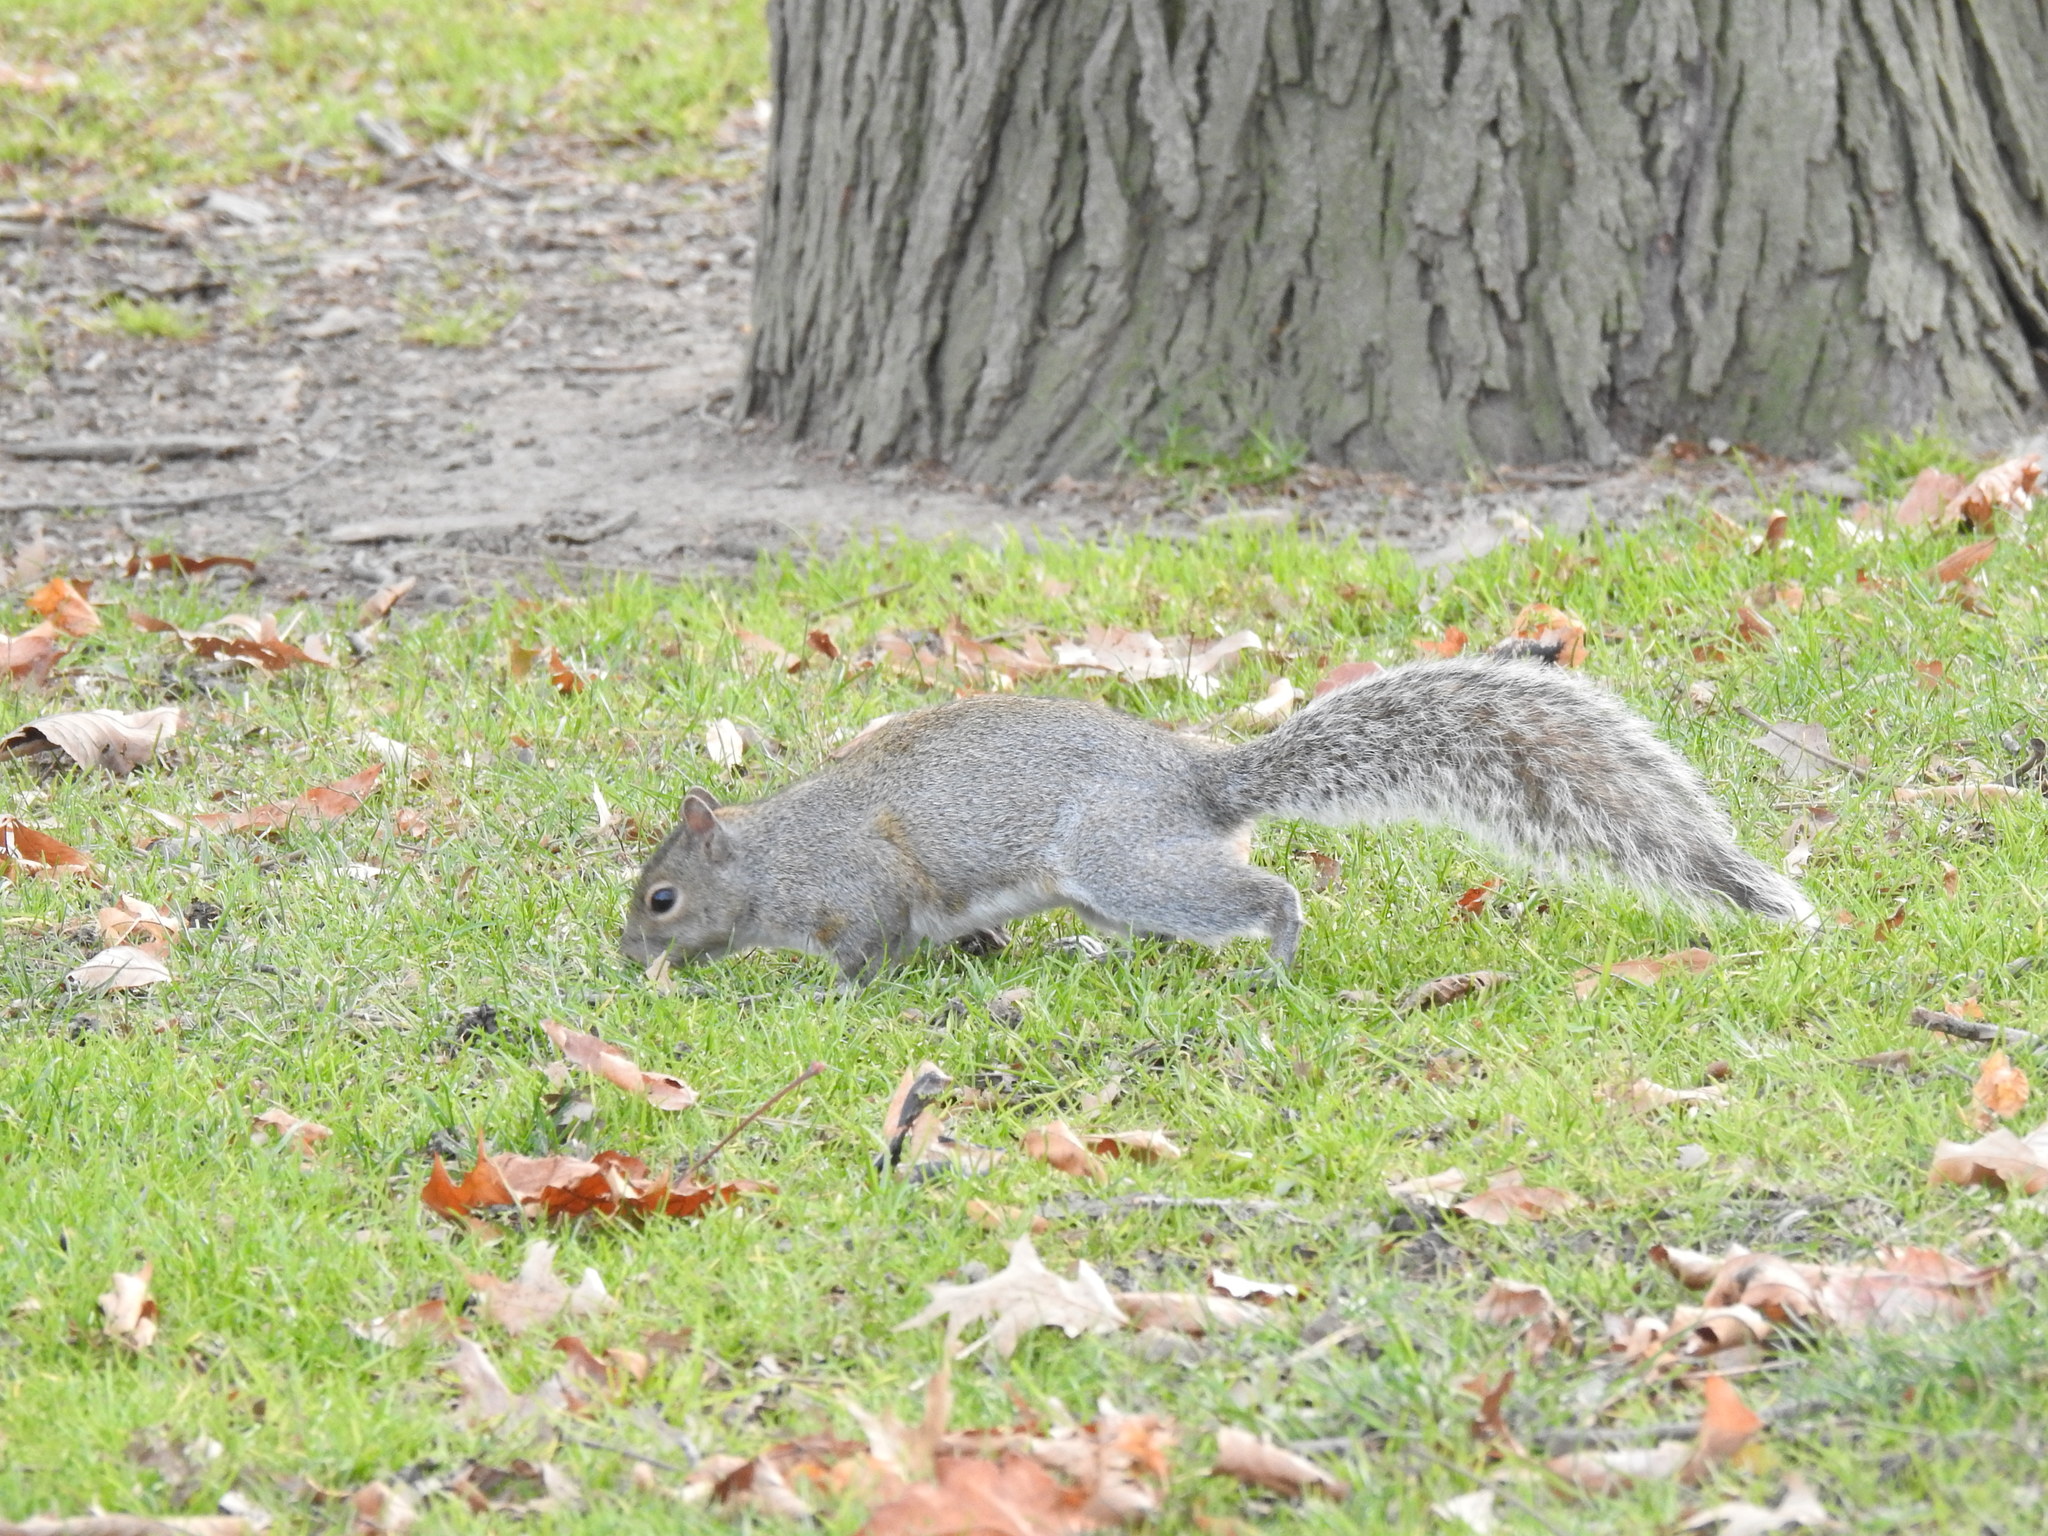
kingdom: Animalia
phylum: Chordata
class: Mammalia
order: Rodentia
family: Sciuridae
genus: Sciurus
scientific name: Sciurus carolinensis
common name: Eastern gray squirrel
